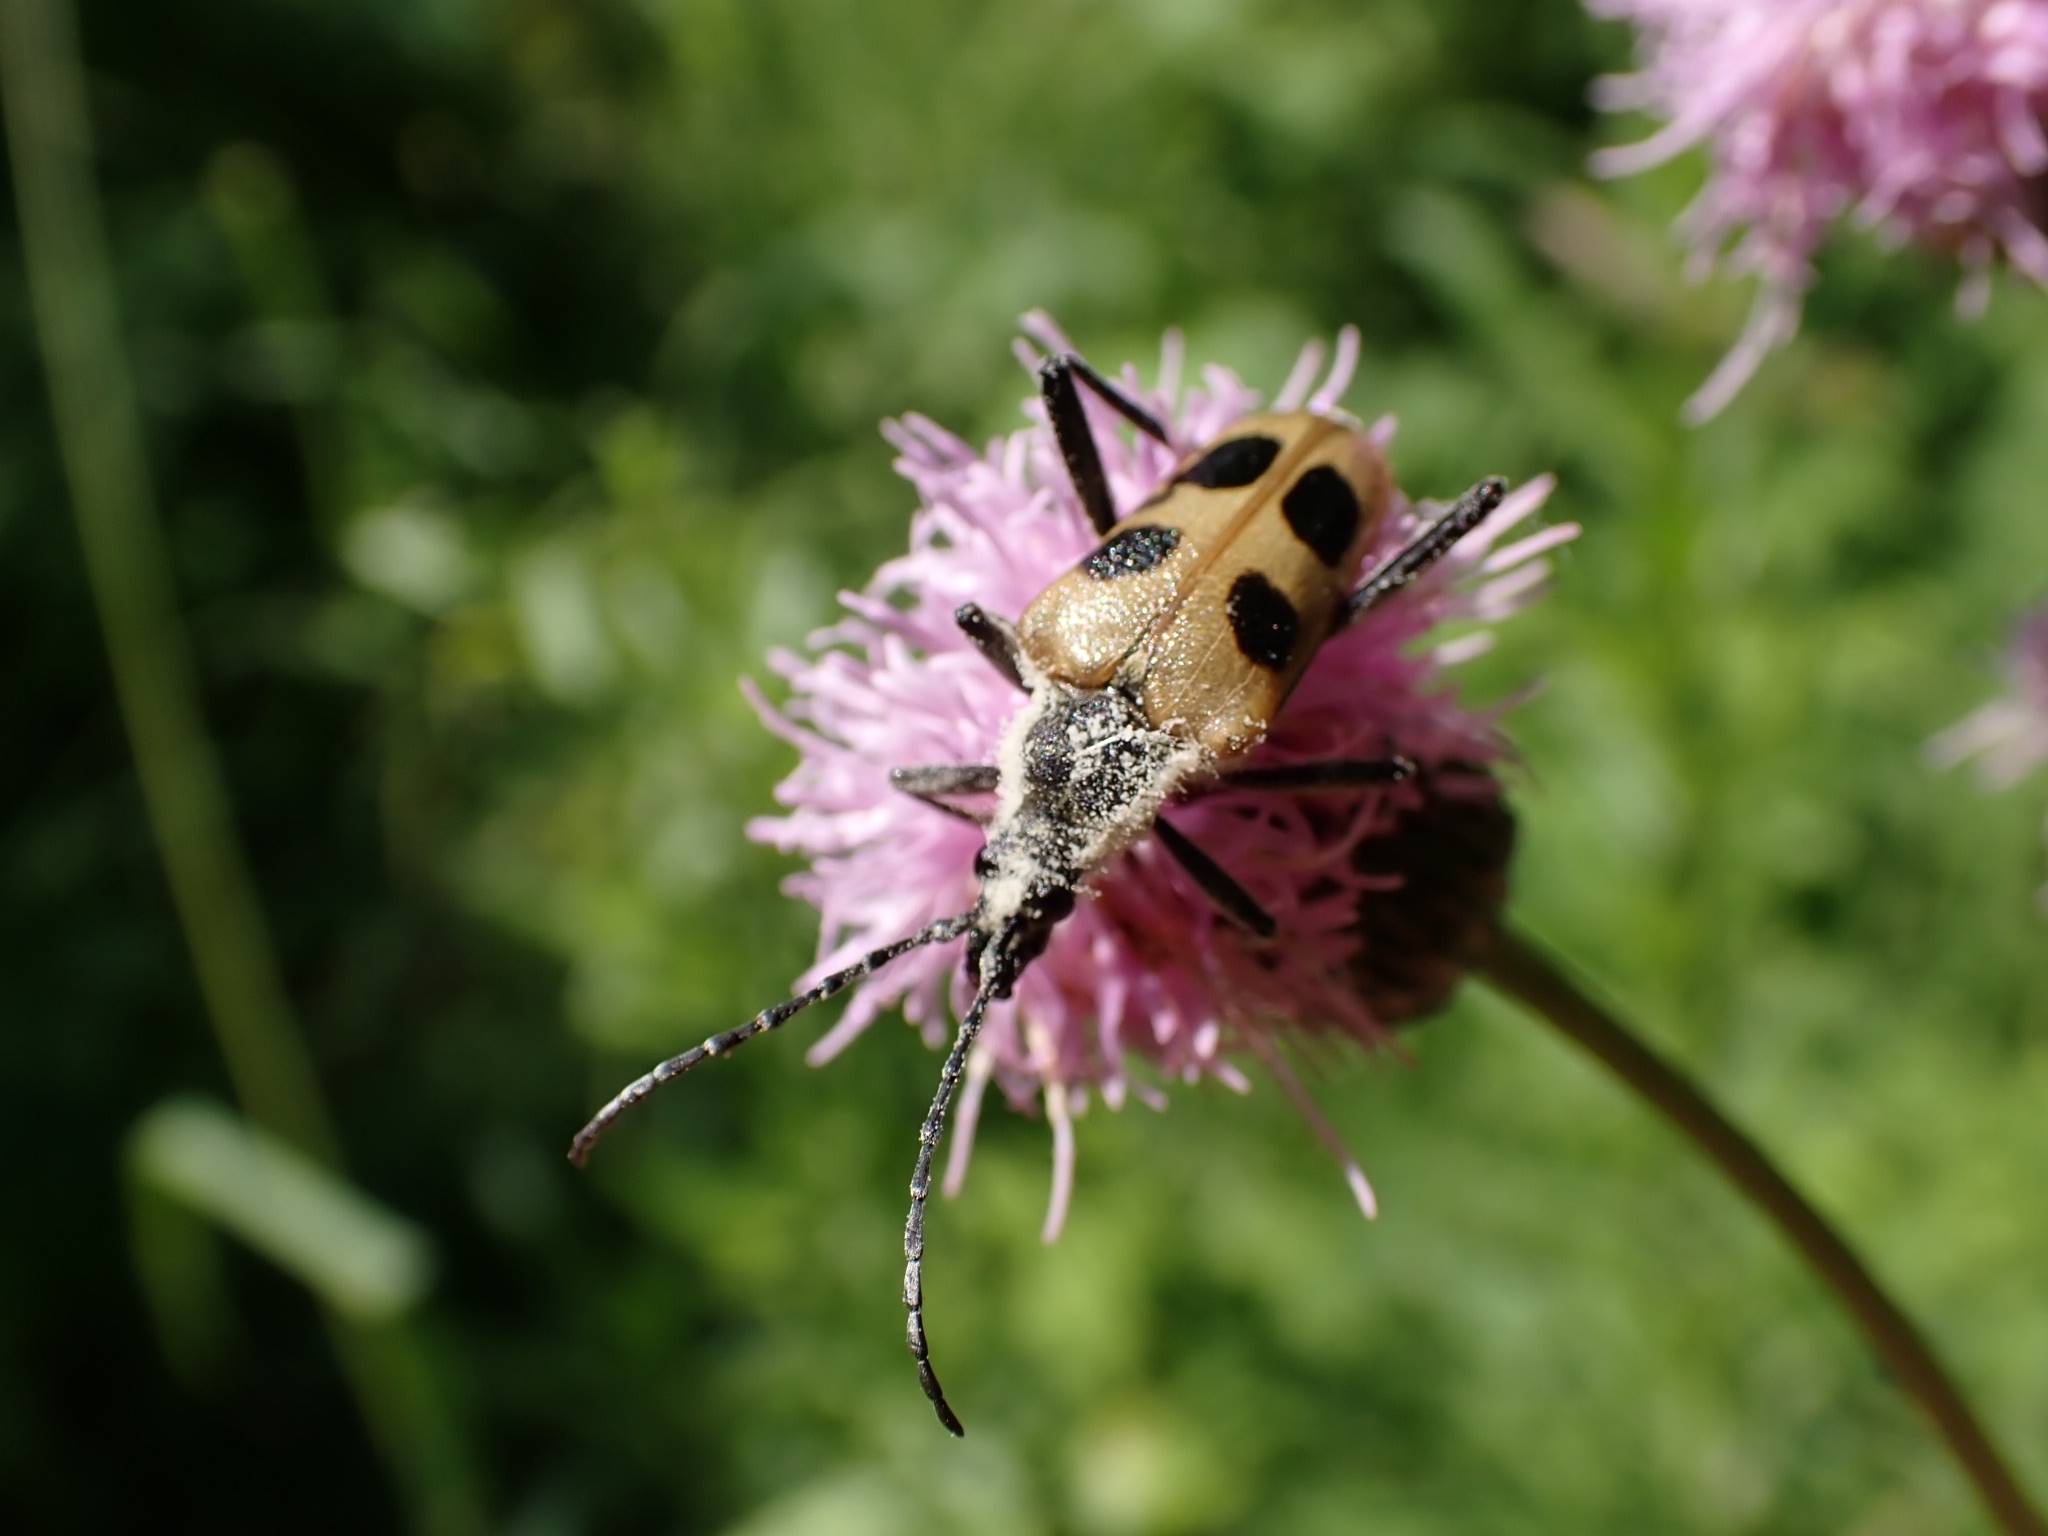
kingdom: Animalia
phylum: Arthropoda
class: Insecta
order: Coleoptera
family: Cerambycidae
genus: Pachyta
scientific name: Pachyta quadrimaculata
